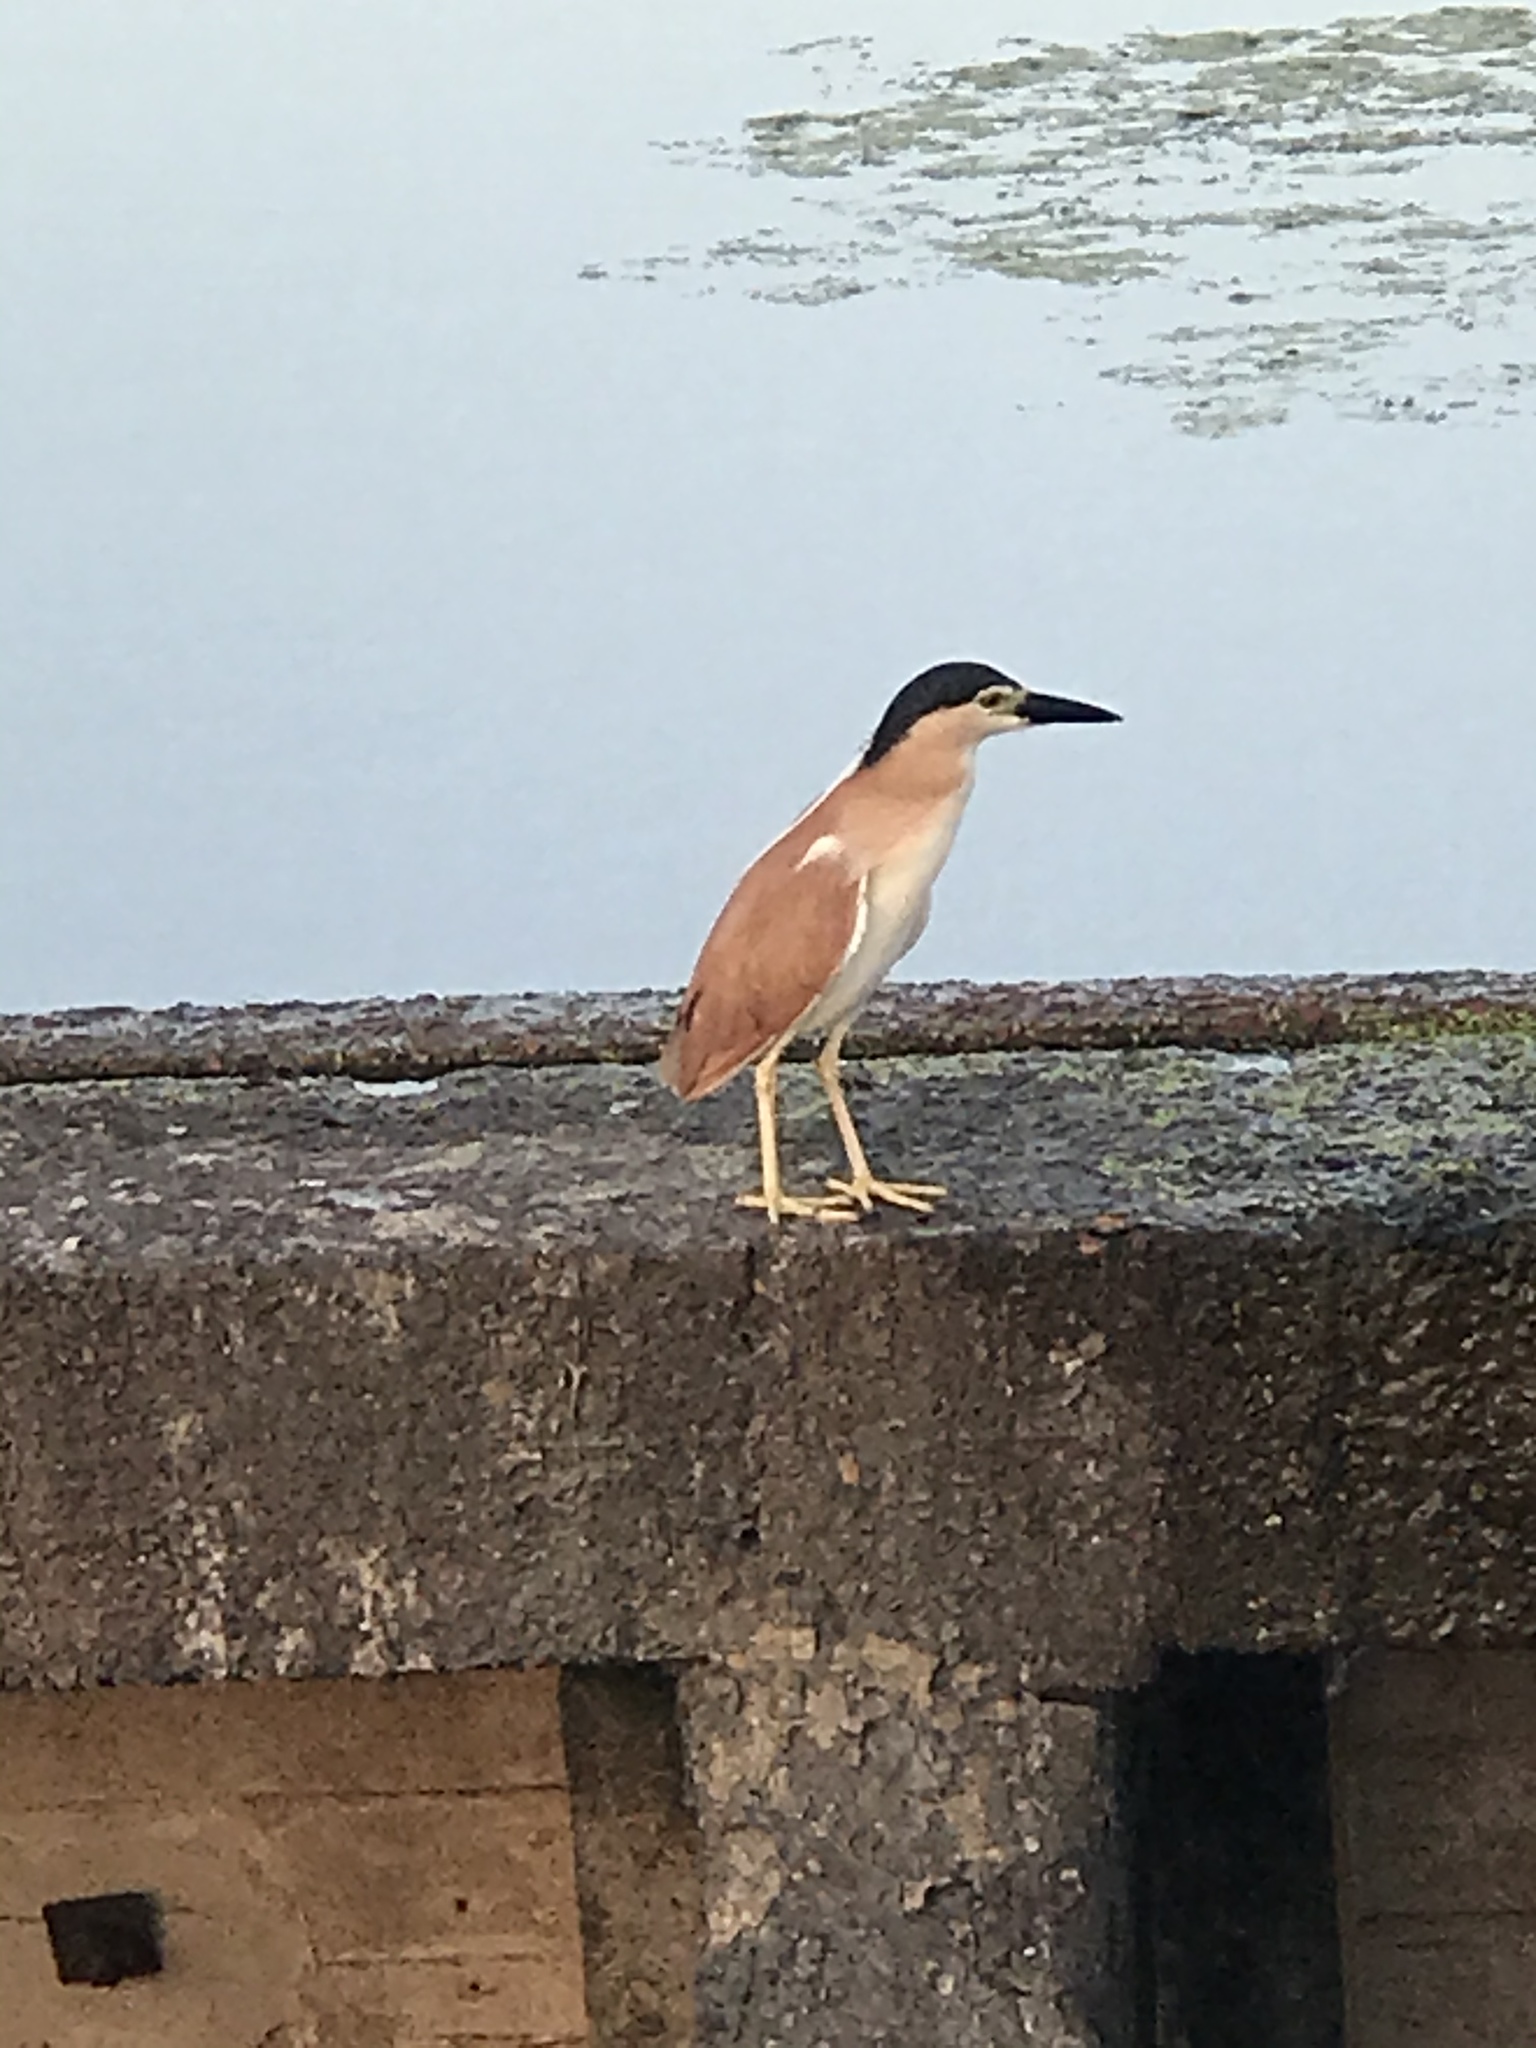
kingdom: Animalia
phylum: Chordata
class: Aves
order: Pelecaniformes
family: Ardeidae
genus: Nycticorax
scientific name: Nycticorax caledonicus
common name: Rufous night-heron
